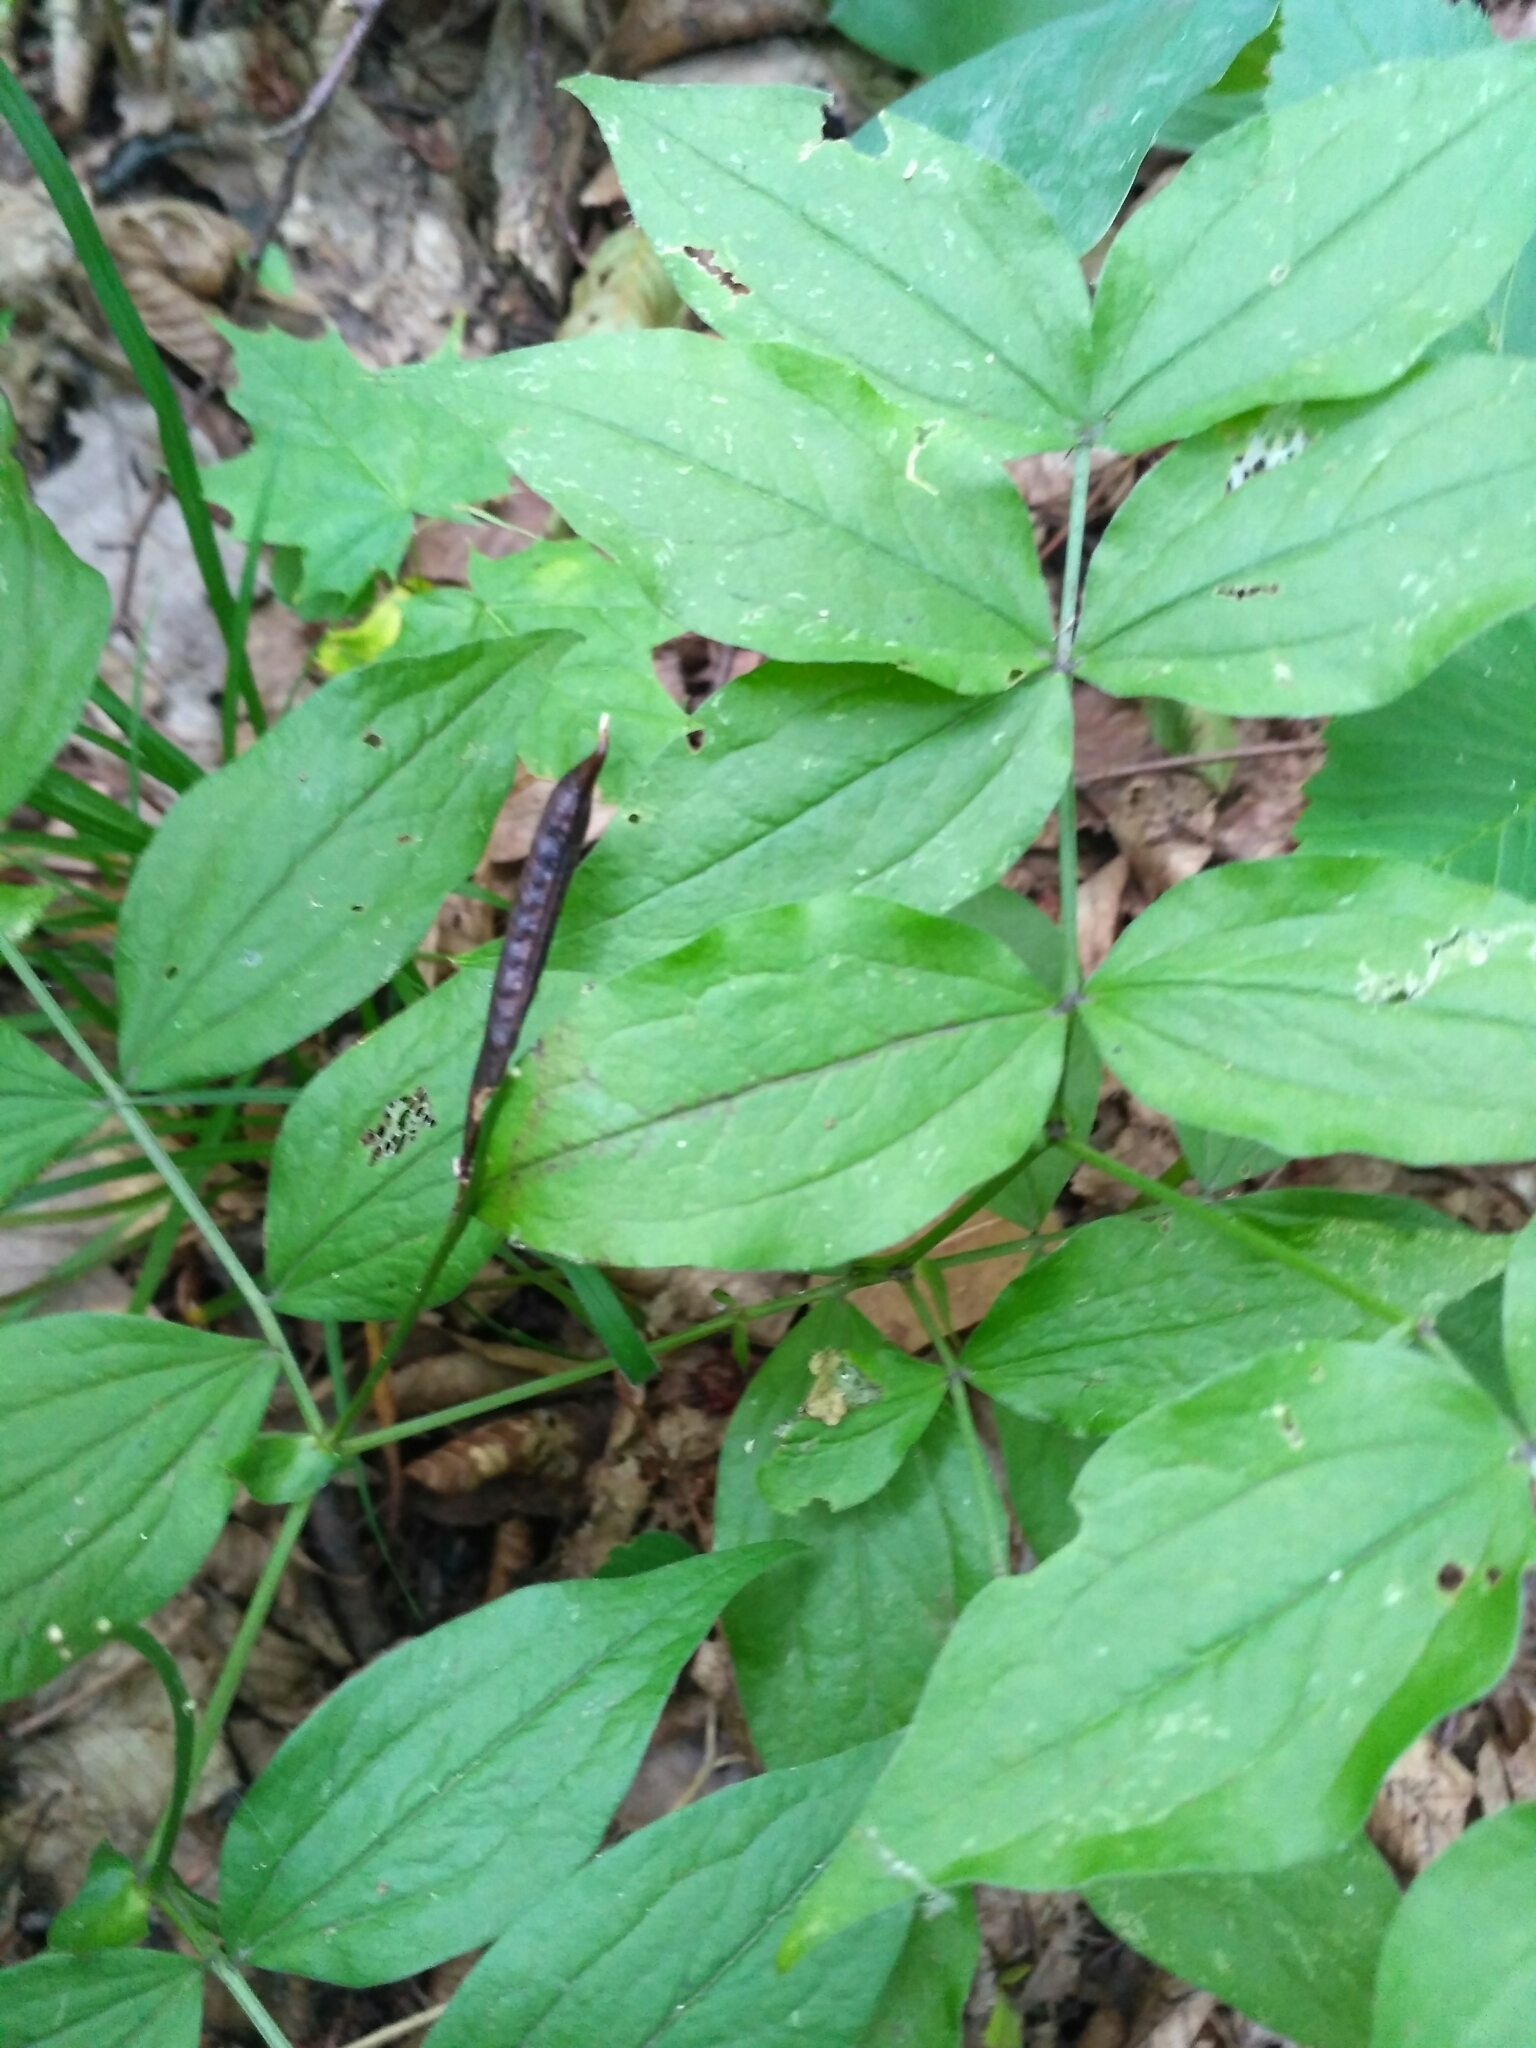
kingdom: Plantae
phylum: Tracheophyta
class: Magnoliopsida
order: Fabales
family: Fabaceae
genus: Lathyrus
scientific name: Lathyrus vernus
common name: Spring pea
